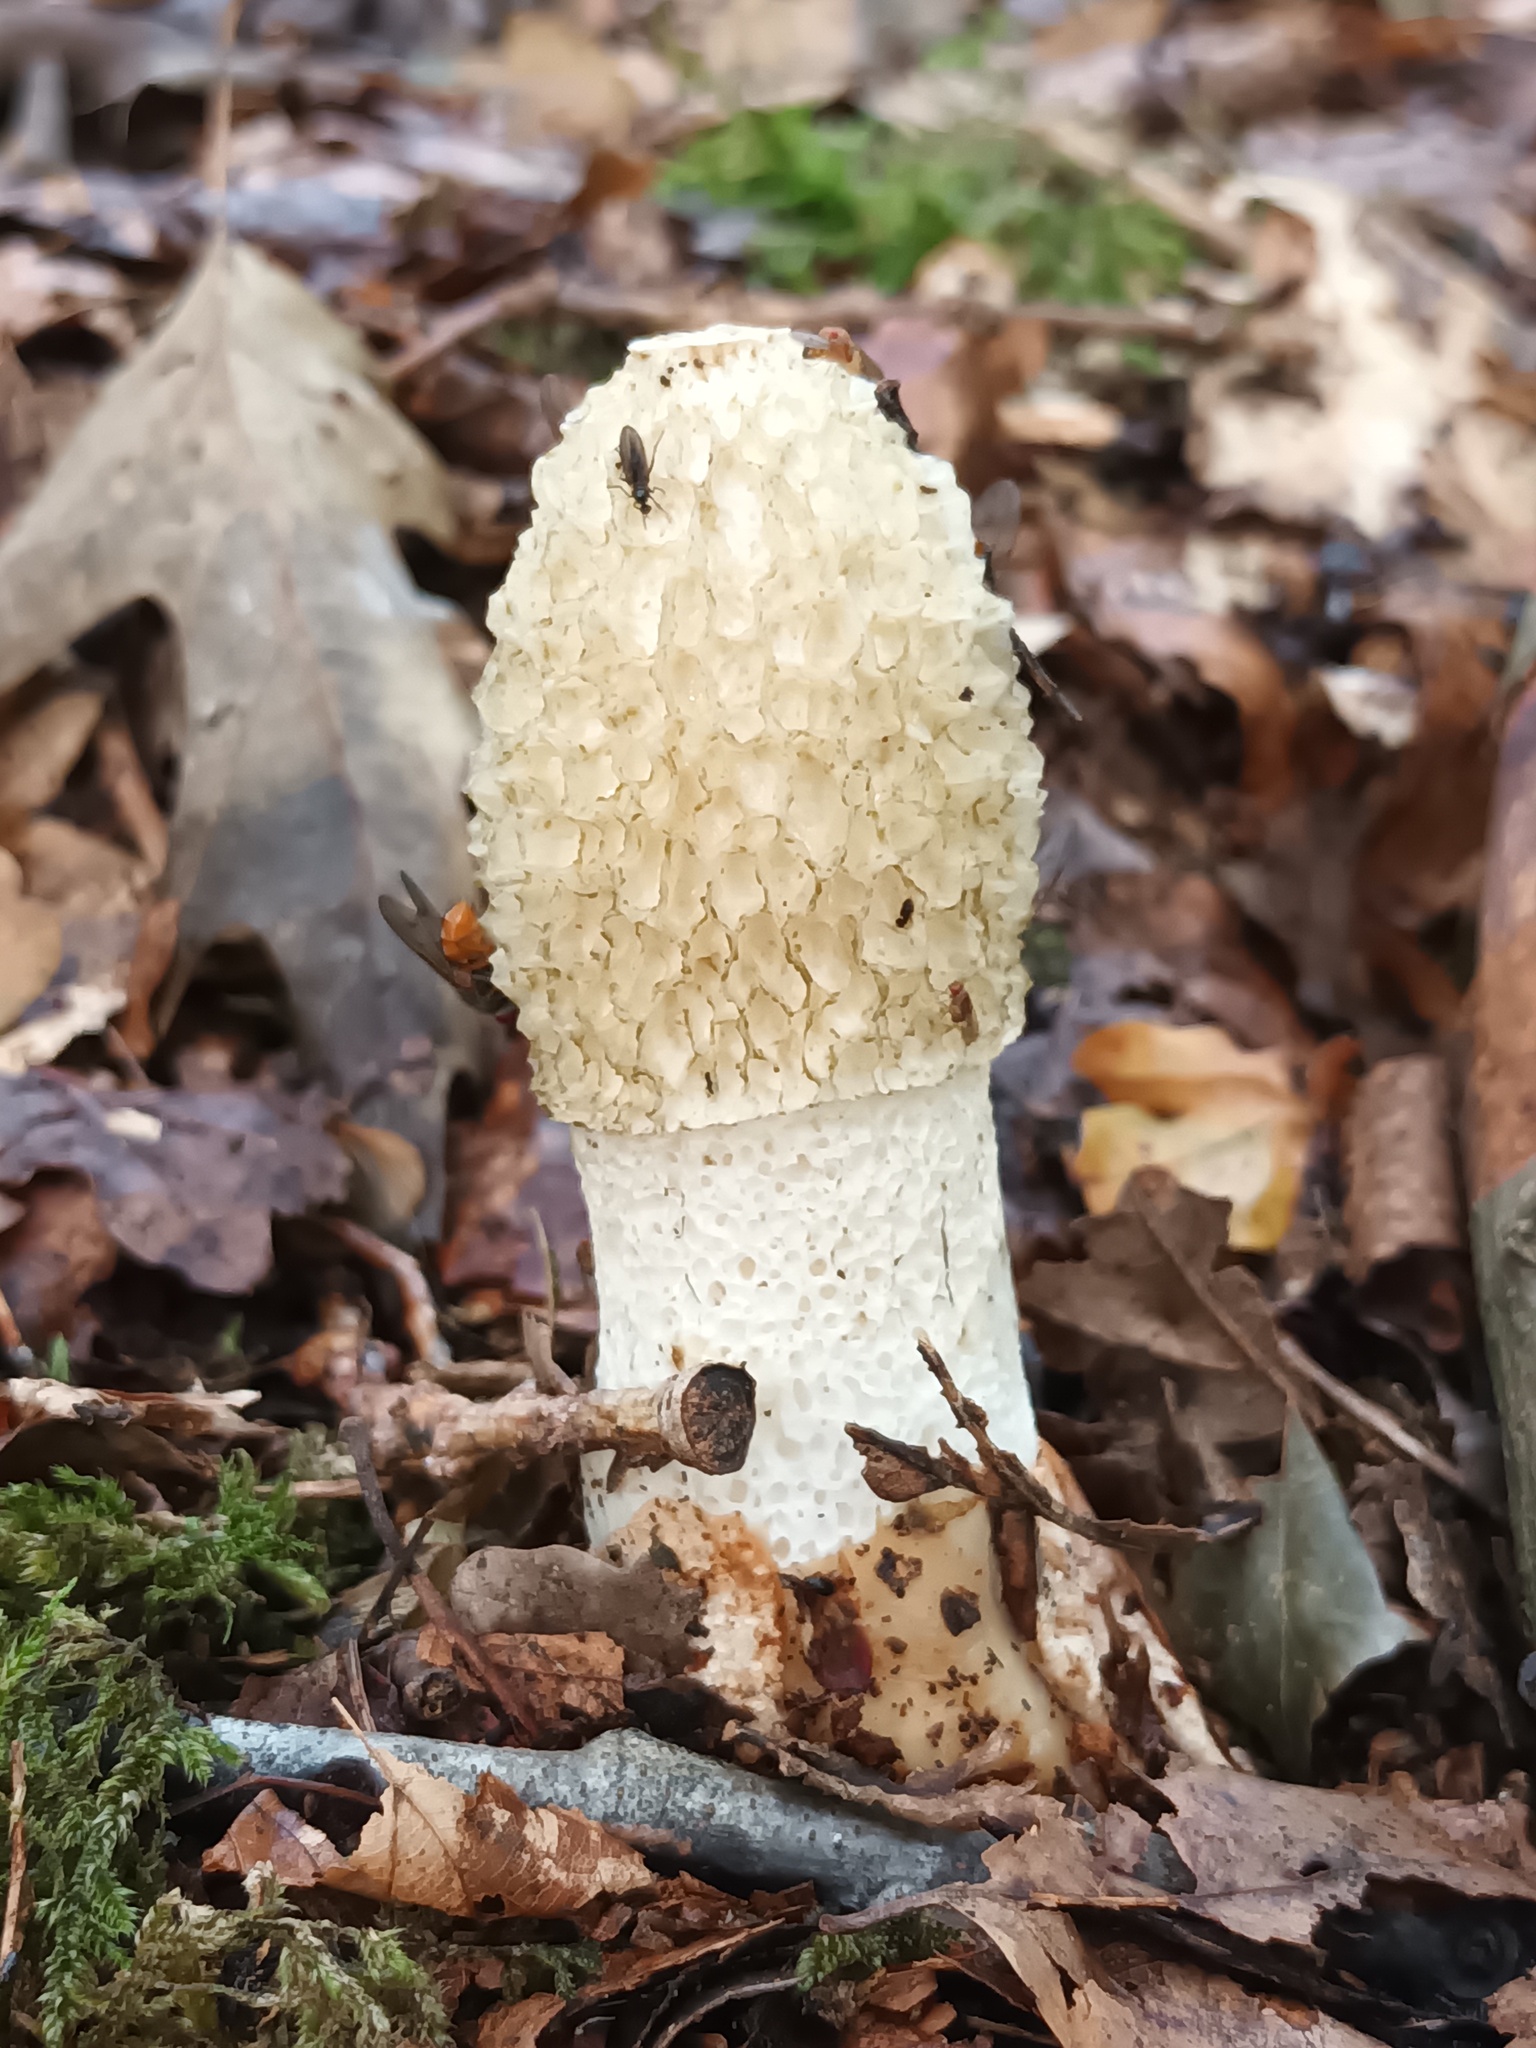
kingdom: Fungi
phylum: Basidiomycota
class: Agaricomycetes
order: Phallales
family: Phallaceae
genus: Phallus
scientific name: Phallus impudicus
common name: Common stinkhorn
